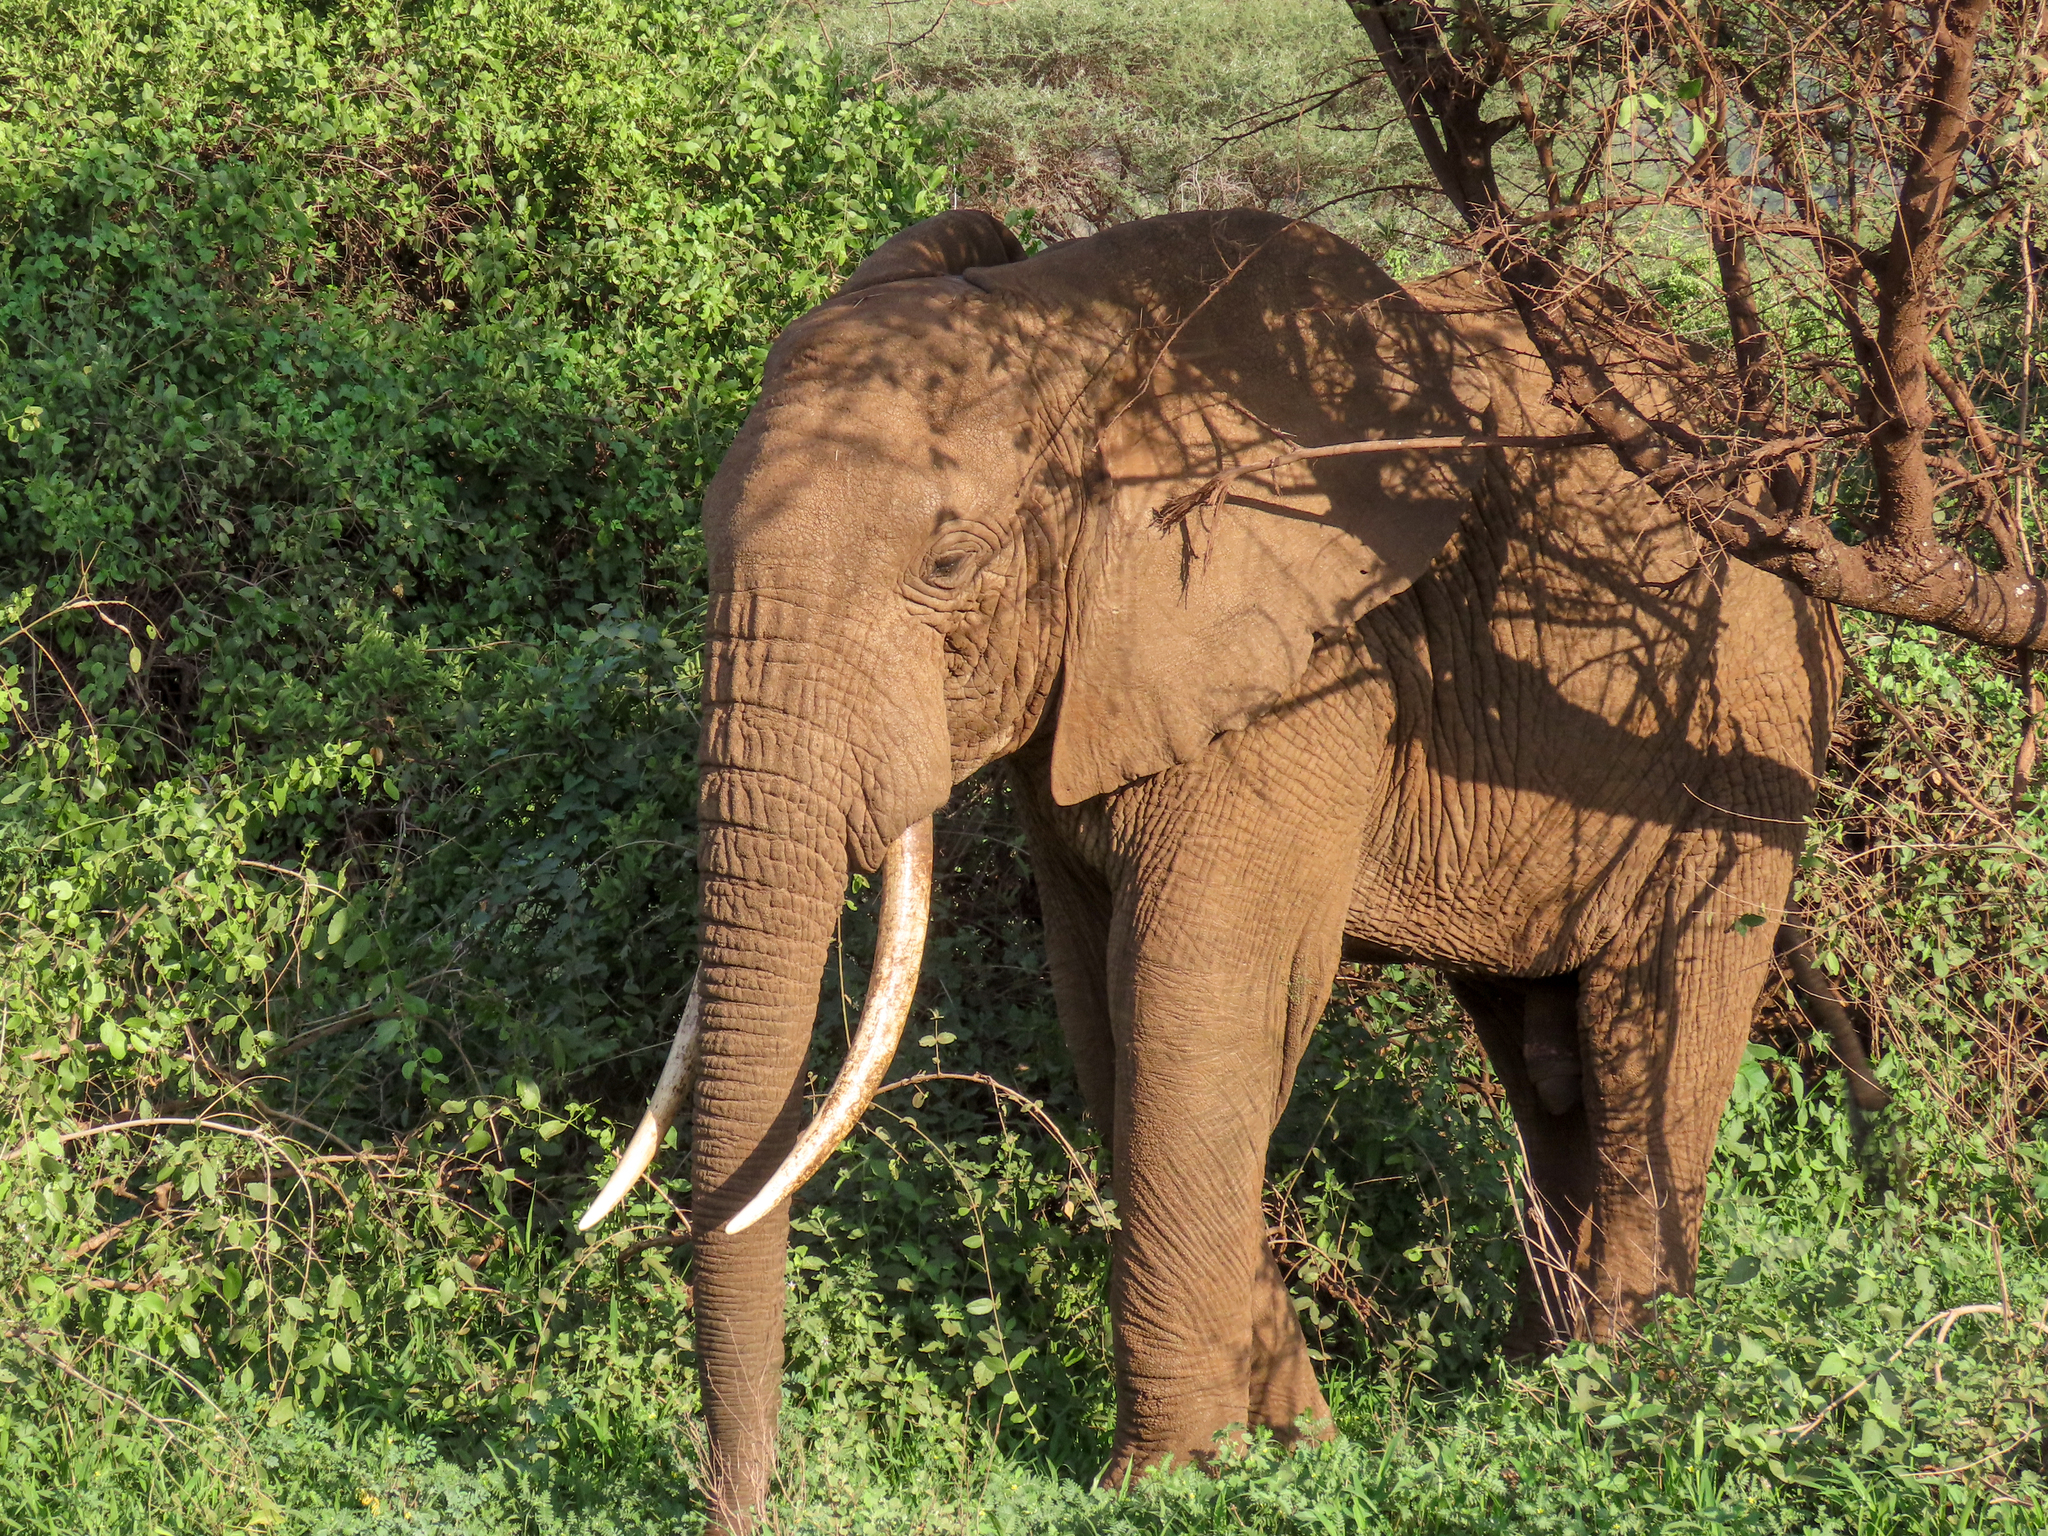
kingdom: Animalia
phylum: Chordata
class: Mammalia
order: Proboscidea
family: Elephantidae
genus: Loxodonta
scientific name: Loxodonta africana
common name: African elephant
